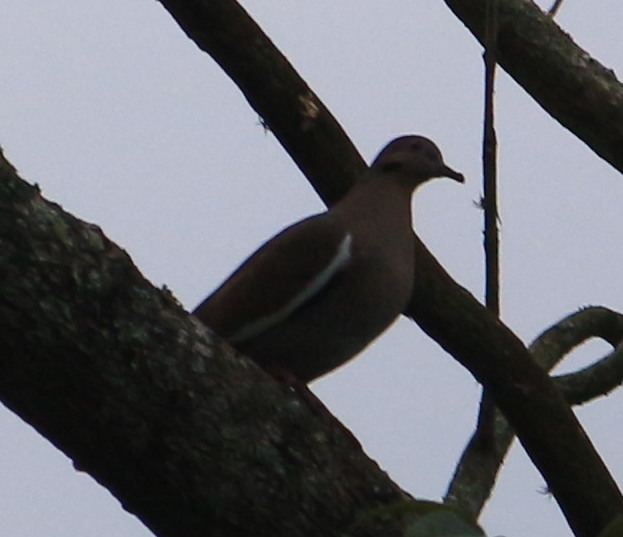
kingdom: Animalia
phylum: Chordata
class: Aves
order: Columbiformes
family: Columbidae
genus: Zenaida
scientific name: Zenaida asiatica
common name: White-winged dove
